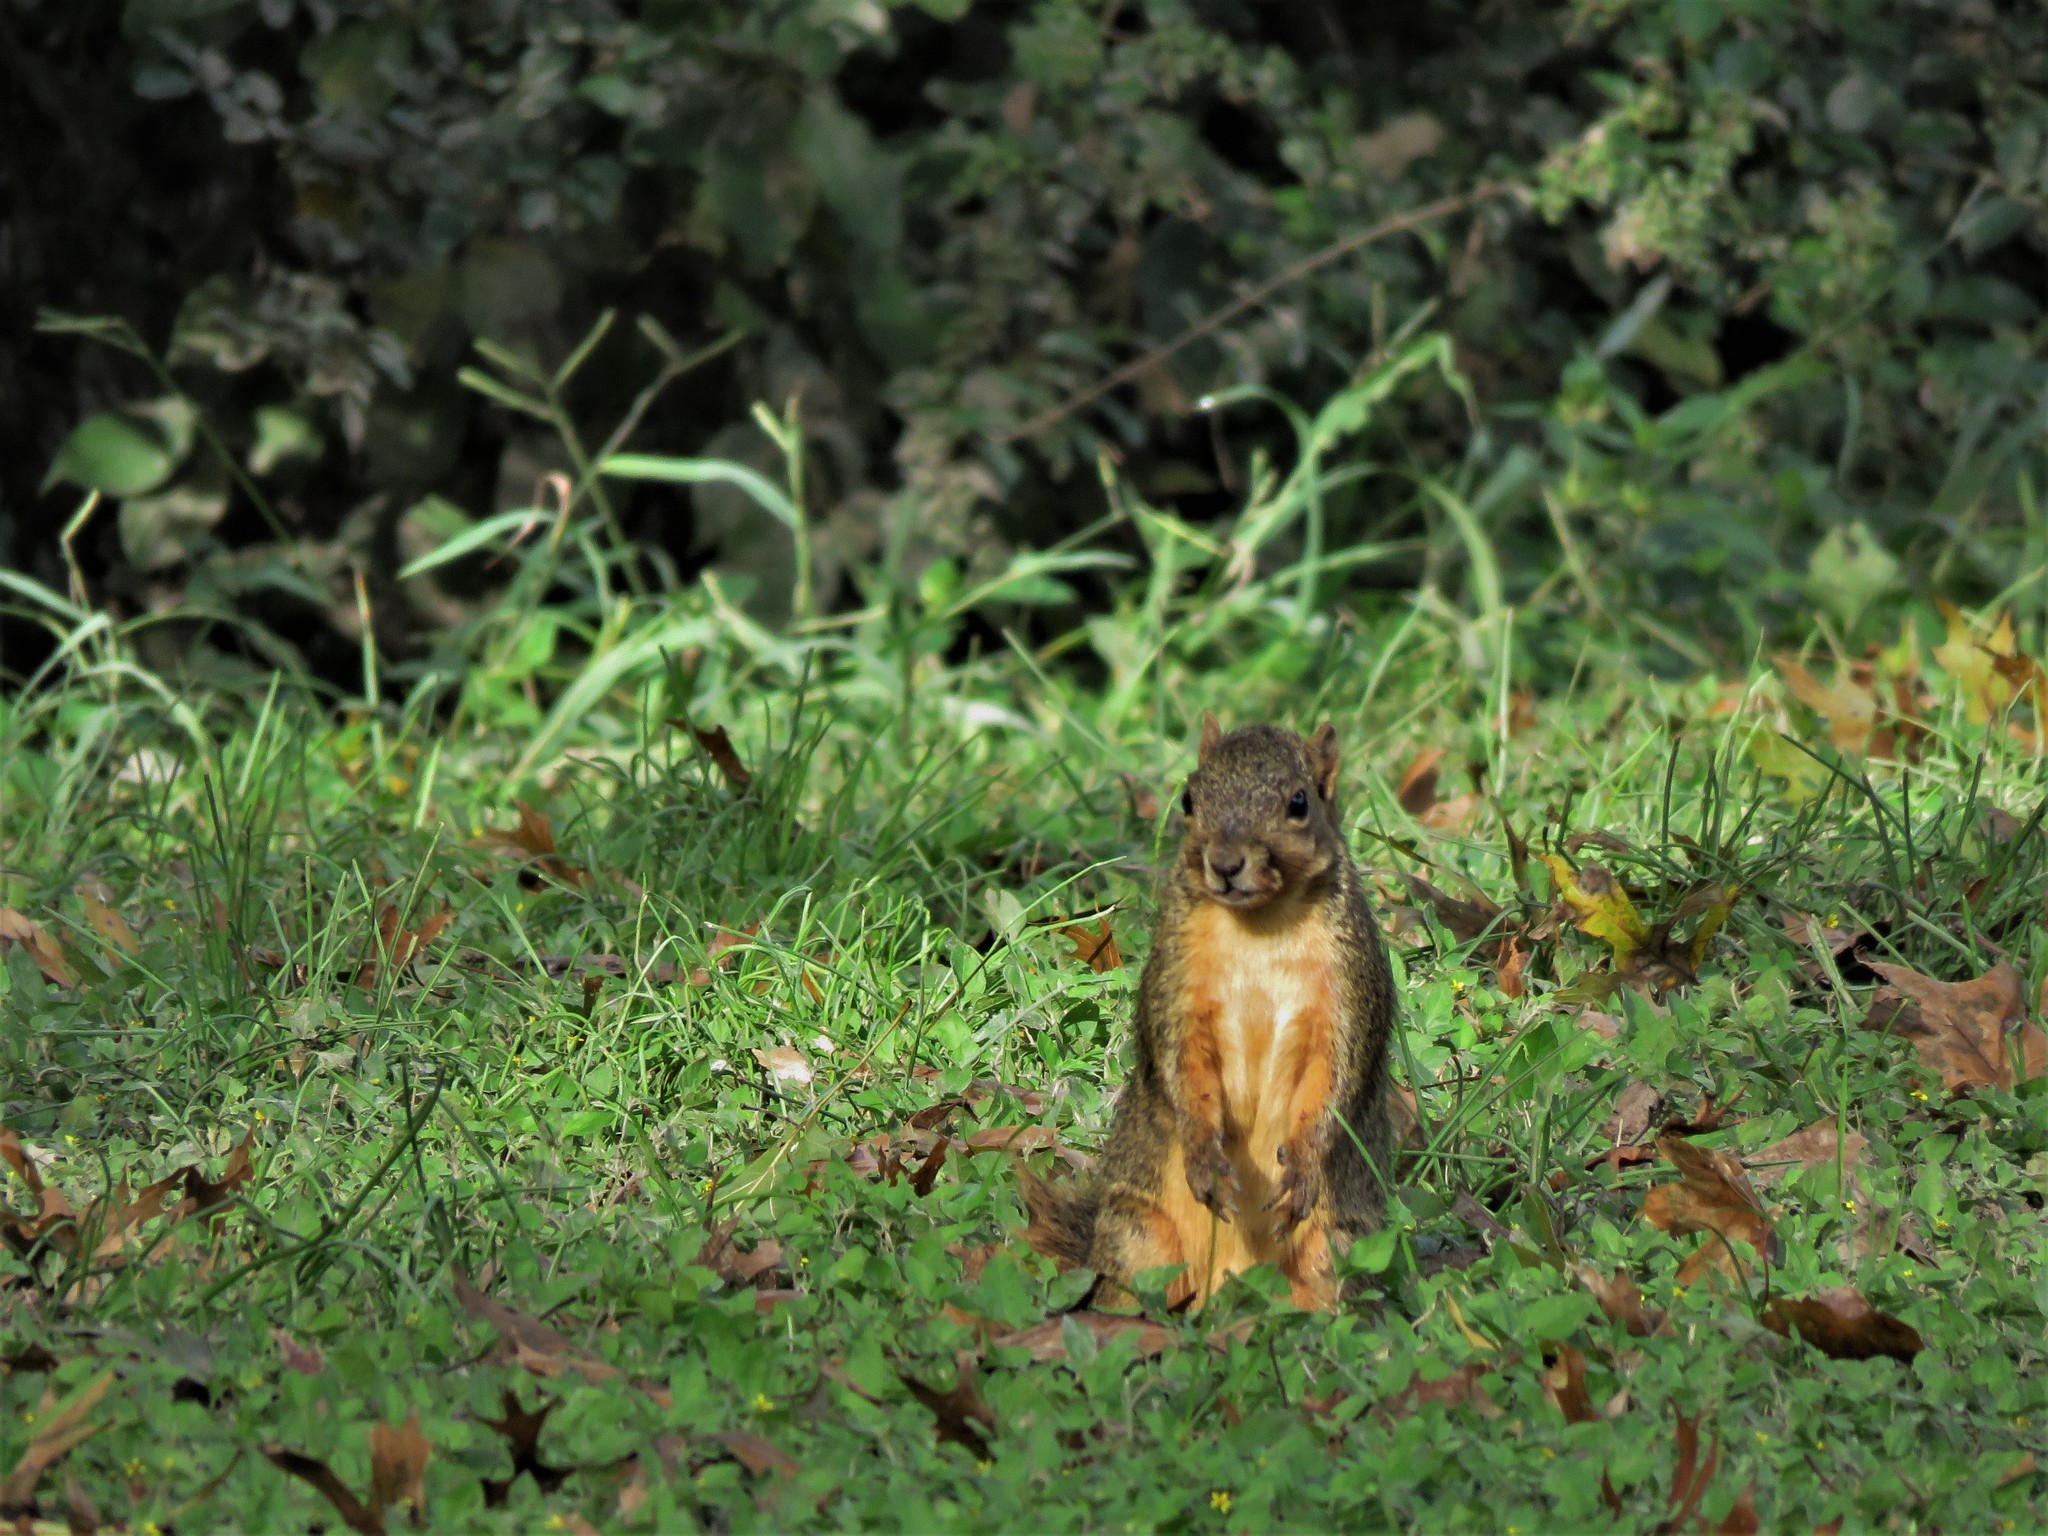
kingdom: Animalia
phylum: Chordata
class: Mammalia
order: Rodentia
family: Sciuridae
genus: Sciurus
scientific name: Sciurus niger
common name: Fox squirrel
